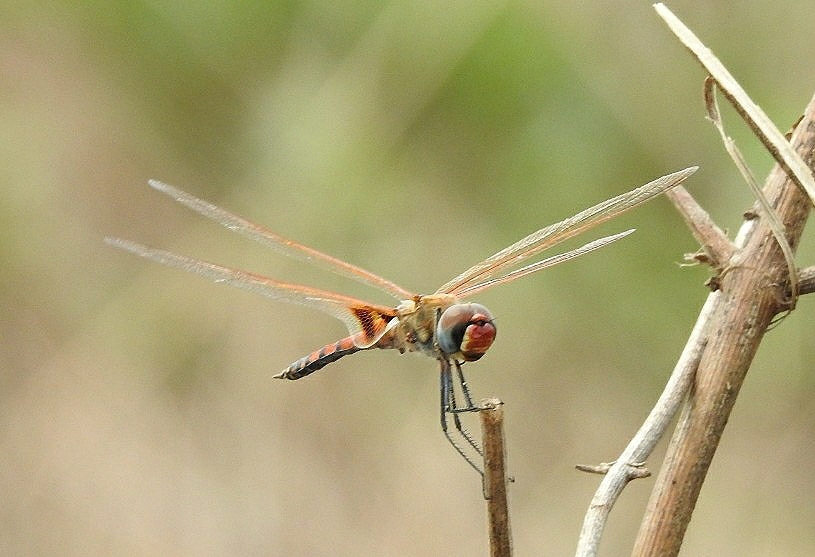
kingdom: Animalia
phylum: Arthropoda
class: Insecta
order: Odonata
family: Libellulidae
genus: Tramea
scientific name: Tramea basilaris
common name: Keyhole glider
